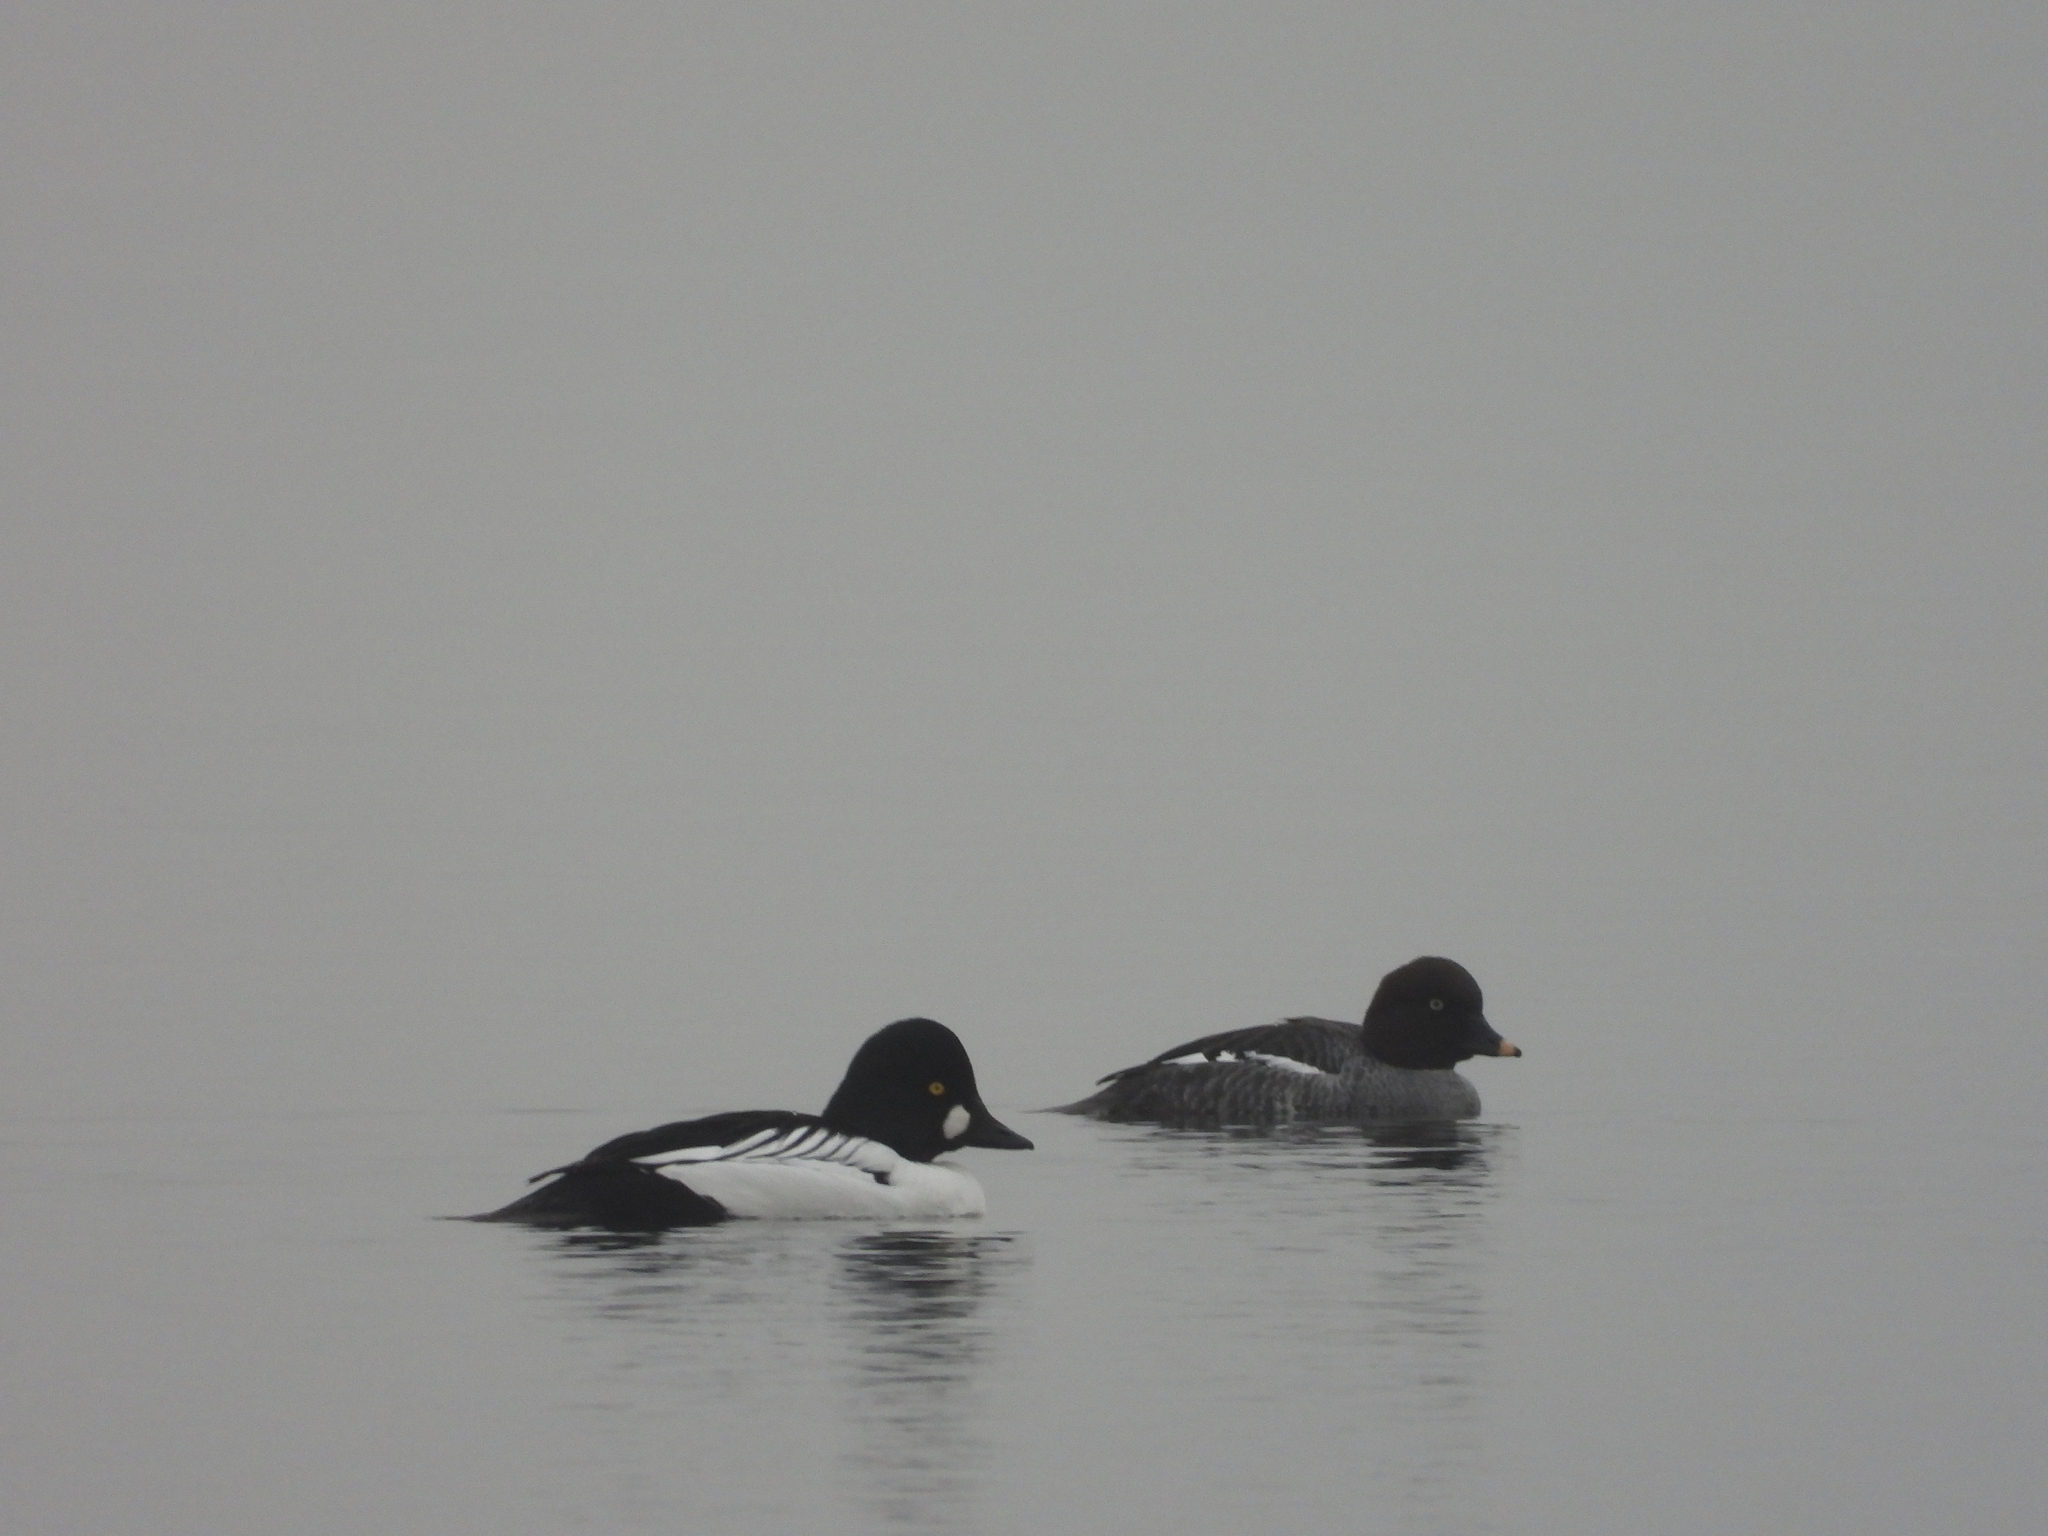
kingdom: Animalia
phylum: Chordata
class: Aves
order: Anseriformes
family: Anatidae
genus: Bucephala
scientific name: Bucephala clangula
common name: Common goldeneye
